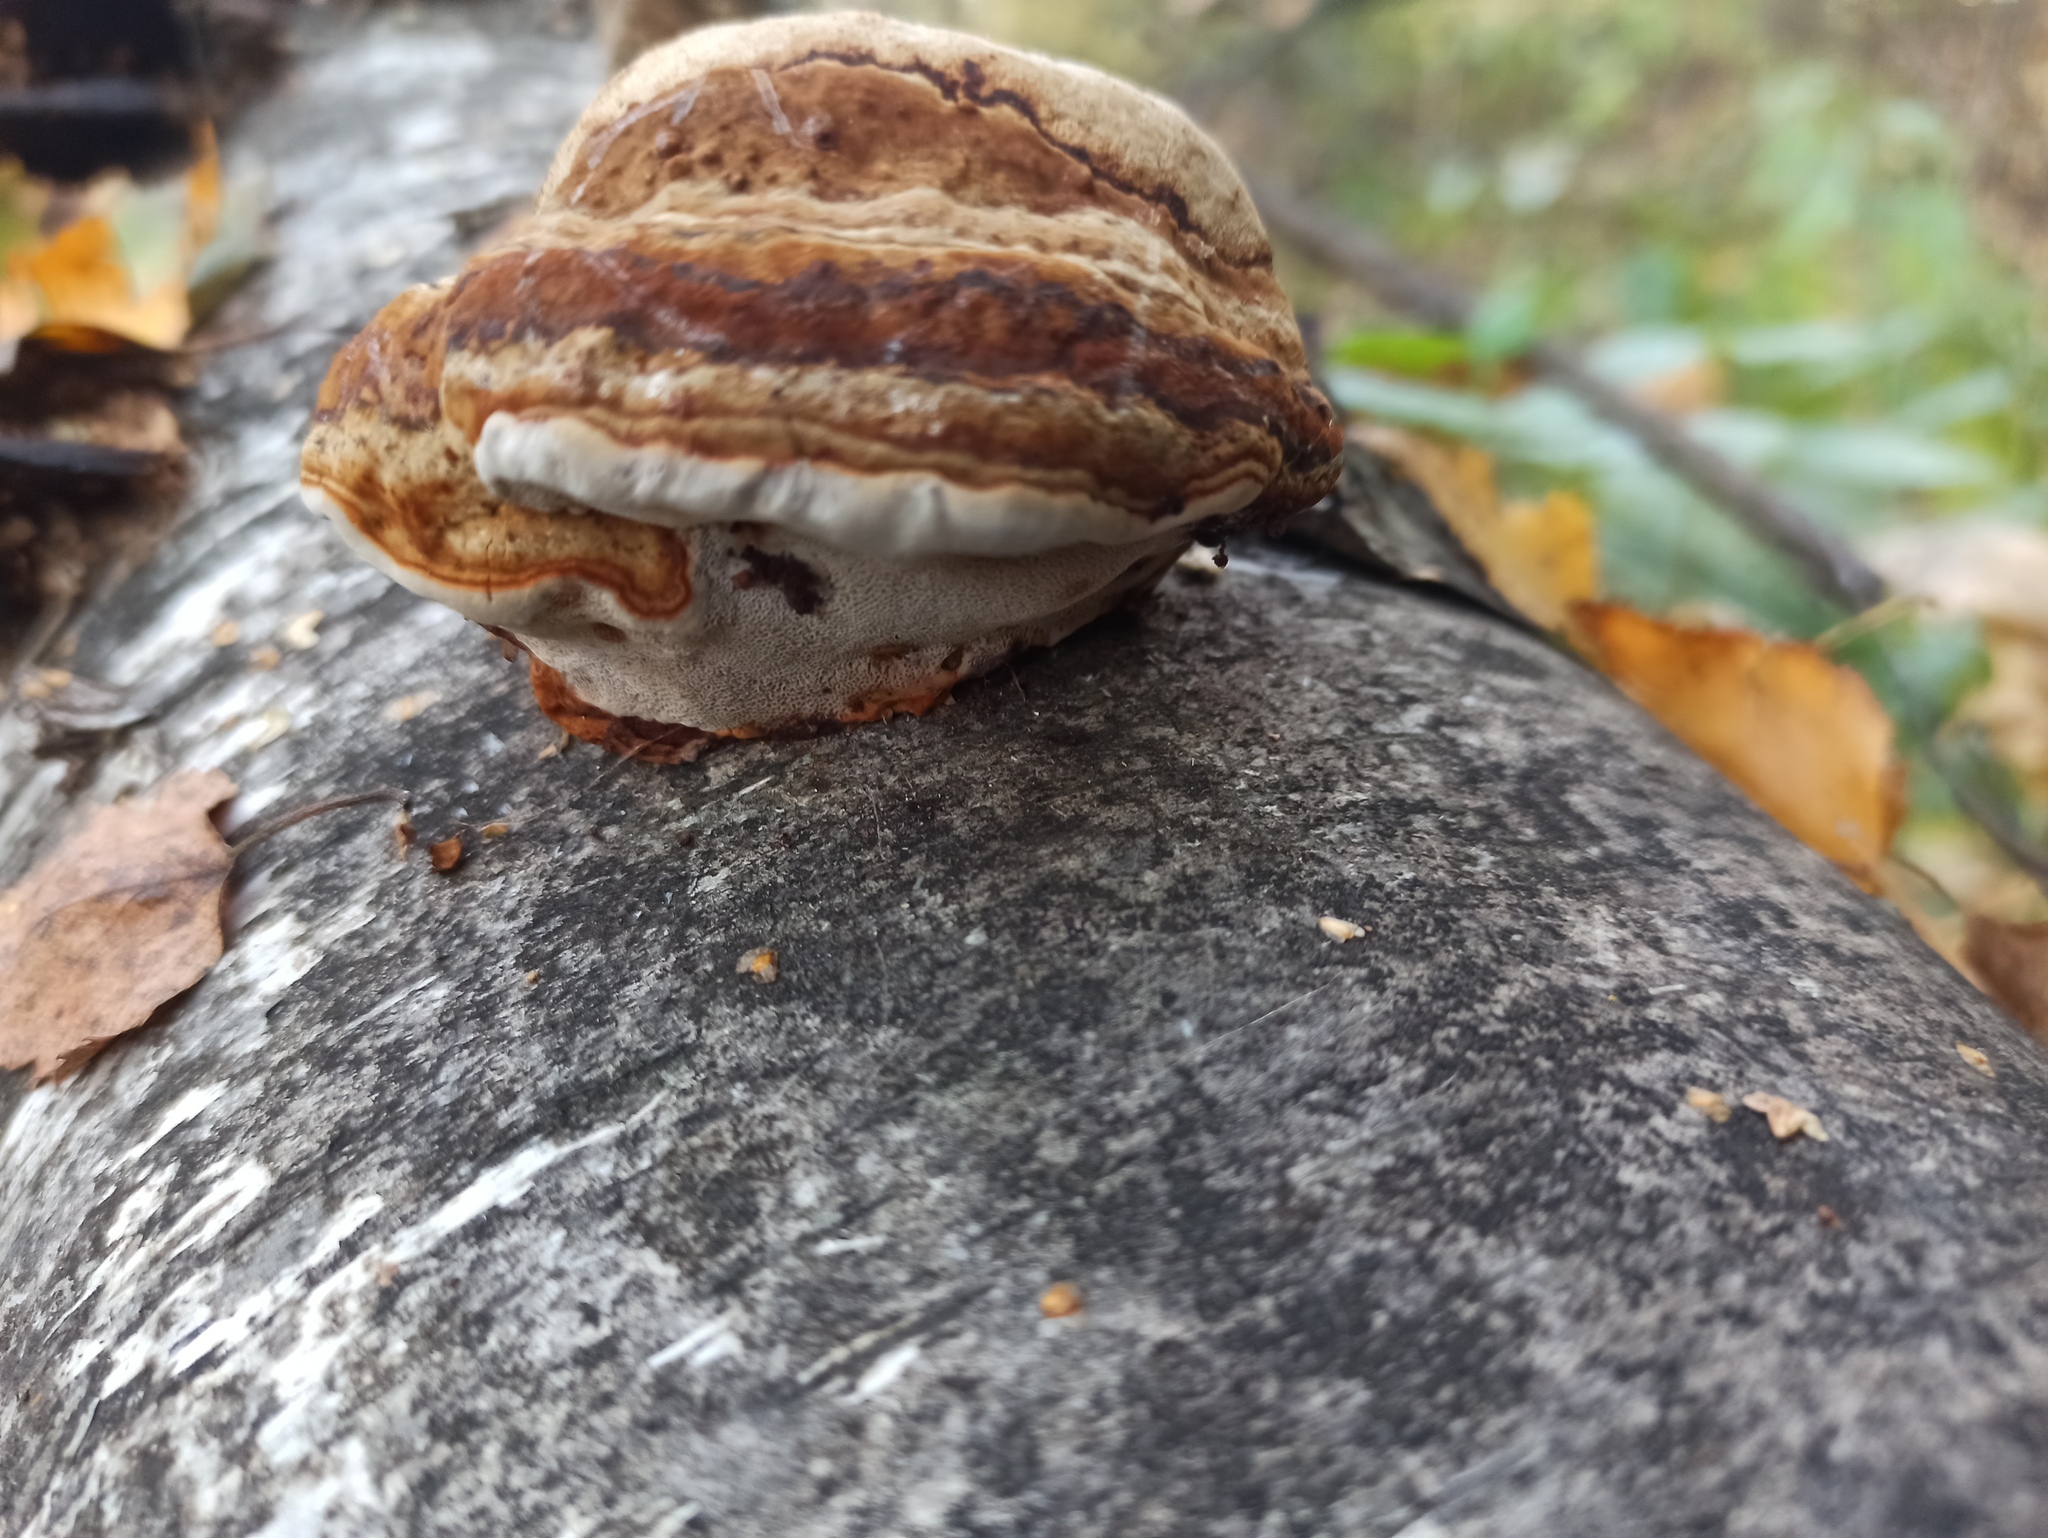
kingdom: Fungi
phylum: Basidiomycota
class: Agaricomycetes
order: Polyporales
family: Polyporaceae
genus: Fomes
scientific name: Fomes fomentarius
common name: Hoof fungus
